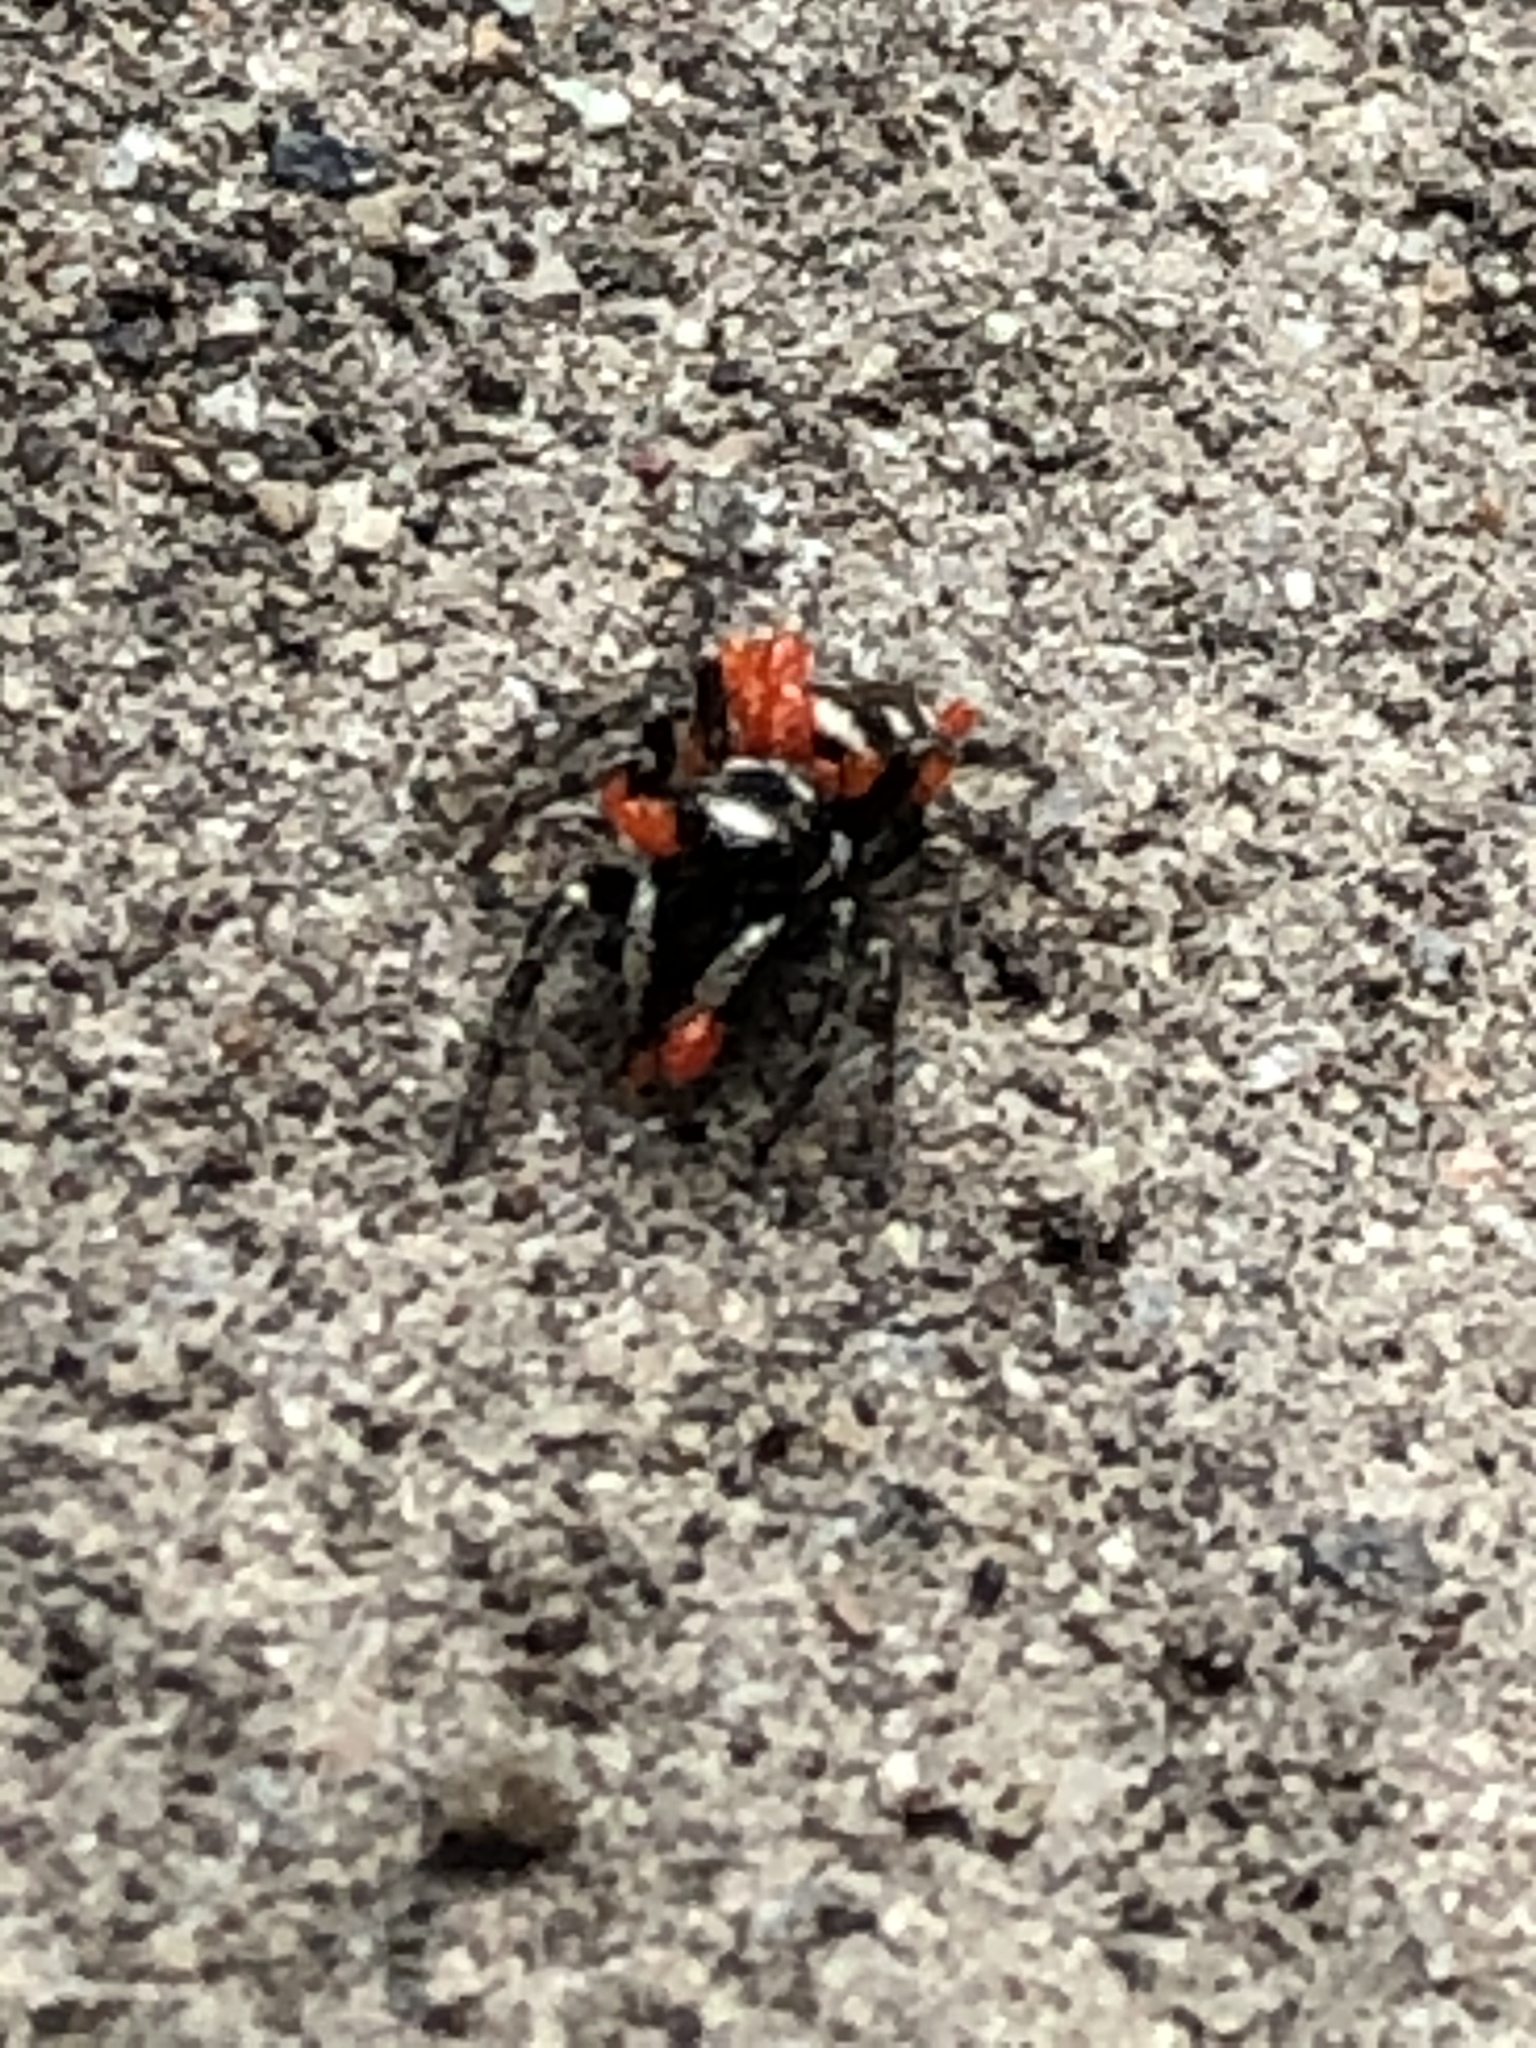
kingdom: Animalia
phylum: Arthropoda
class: Arachnida
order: Araneae
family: Salticidae
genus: Salticus
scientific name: Salticus scenicus
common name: Zebra jumper
